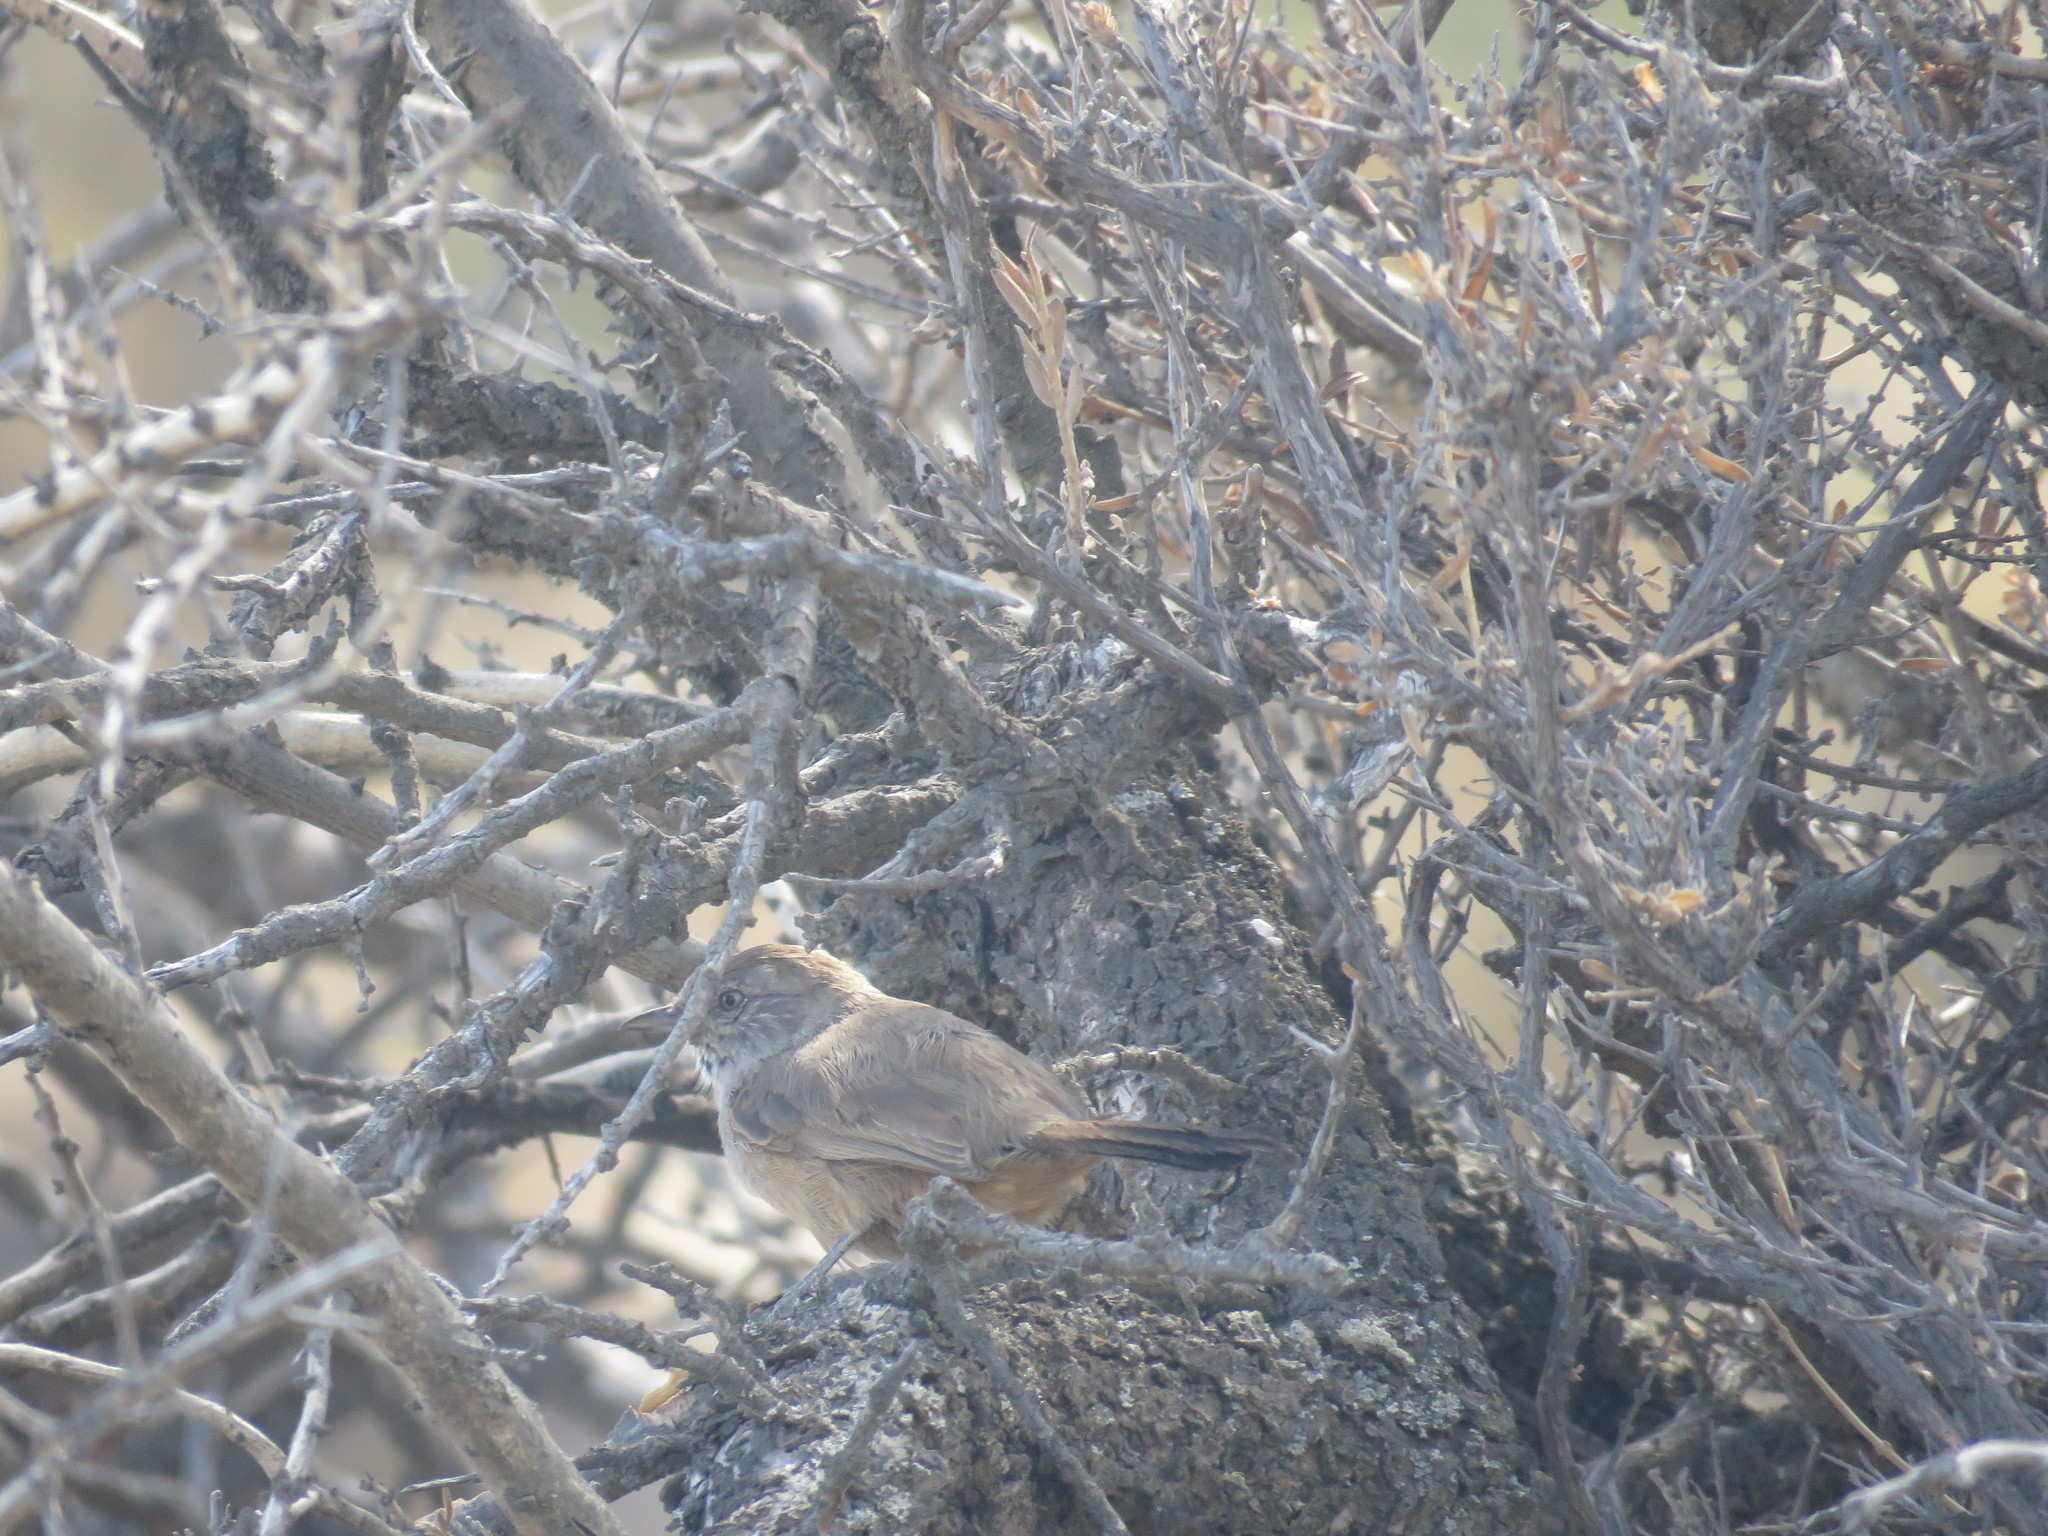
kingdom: Animalia
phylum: Chordata
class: Aves
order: Passeriformes
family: Furnariidae
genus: Asthenes
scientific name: Asthenes patagonica
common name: Patagonian canastero
